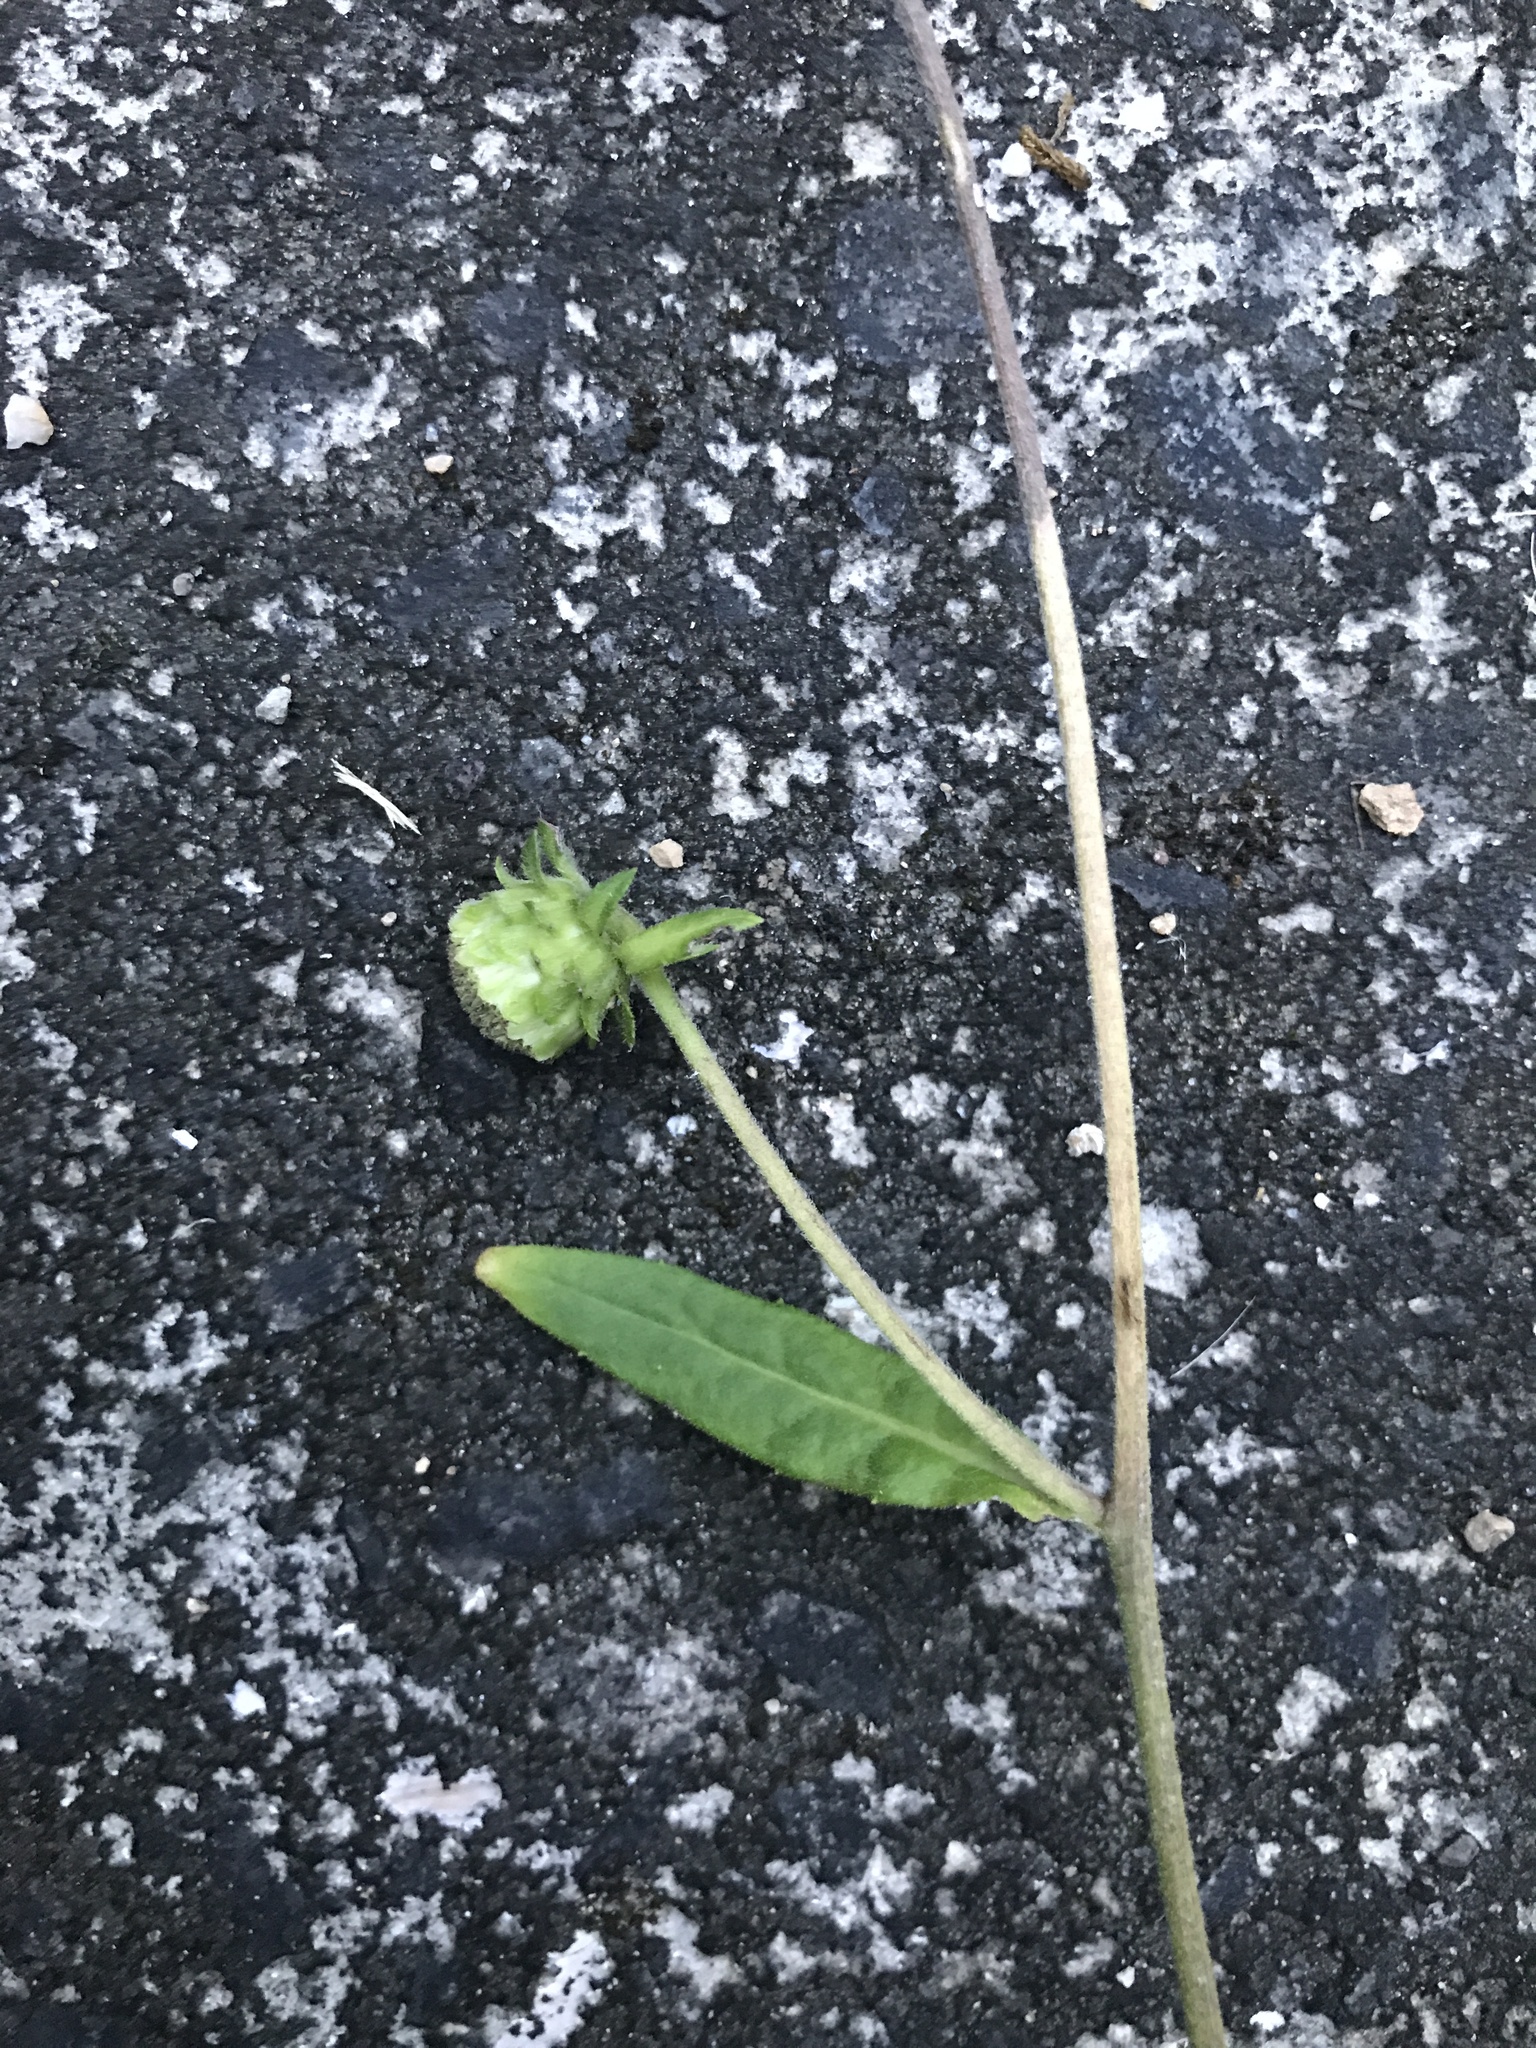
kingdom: Plantae
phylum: Tracheophyta
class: Magnoliopsida
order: Asterales
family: Asteraceae
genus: Carpesium
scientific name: Carpesium glossophyllum
